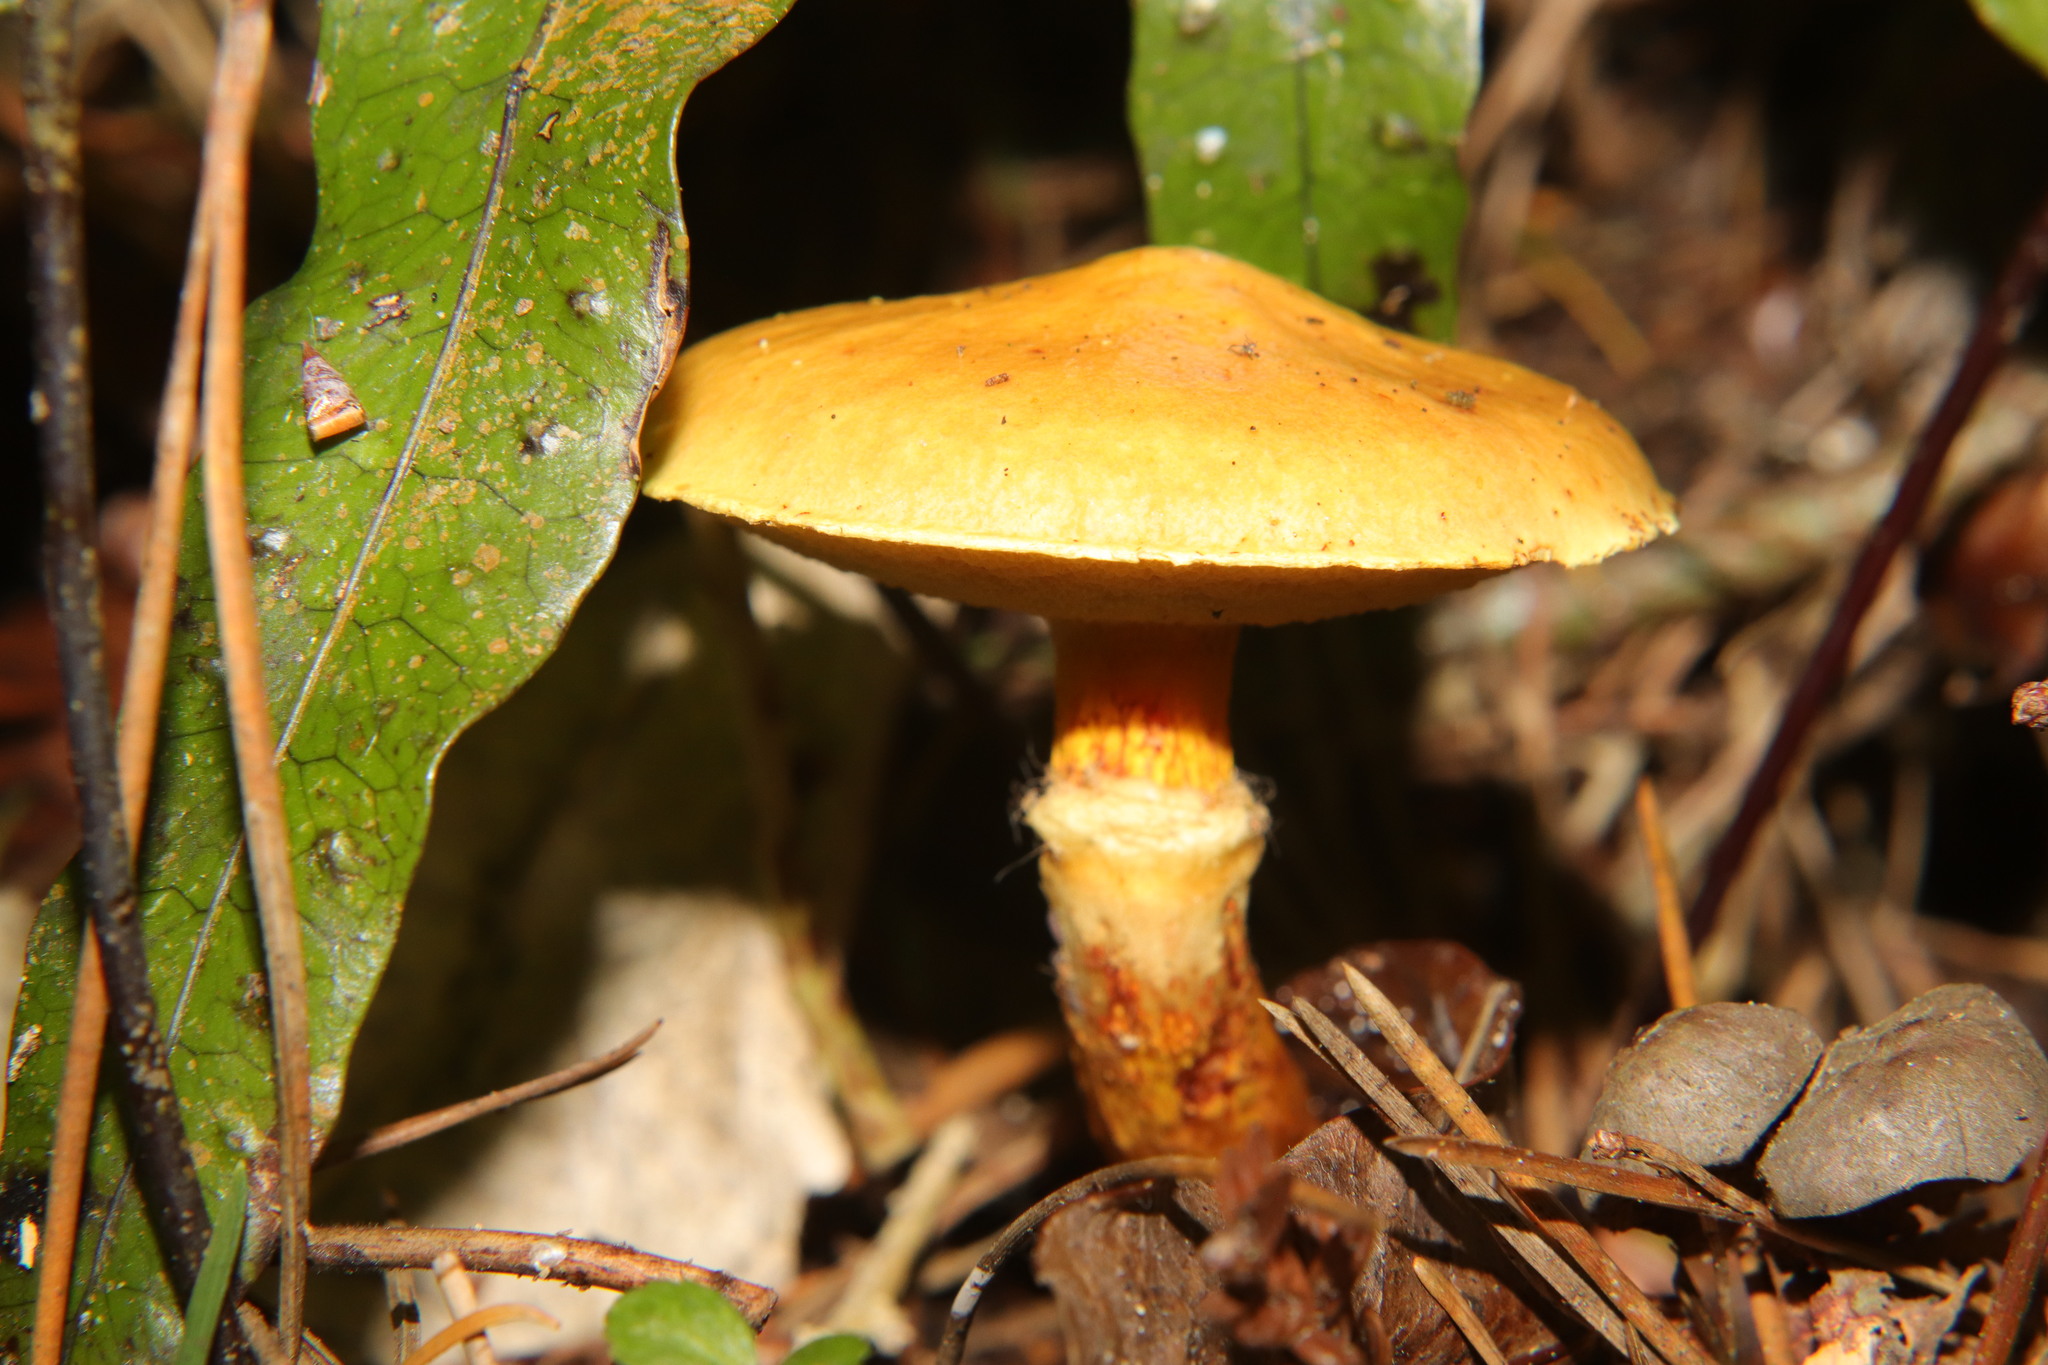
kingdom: Fungi
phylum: Basidiomycota
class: Agaricomycetes
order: Boletales
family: Suillaceae
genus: Suillus
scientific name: Suillus grevillei
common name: Larch bolete
